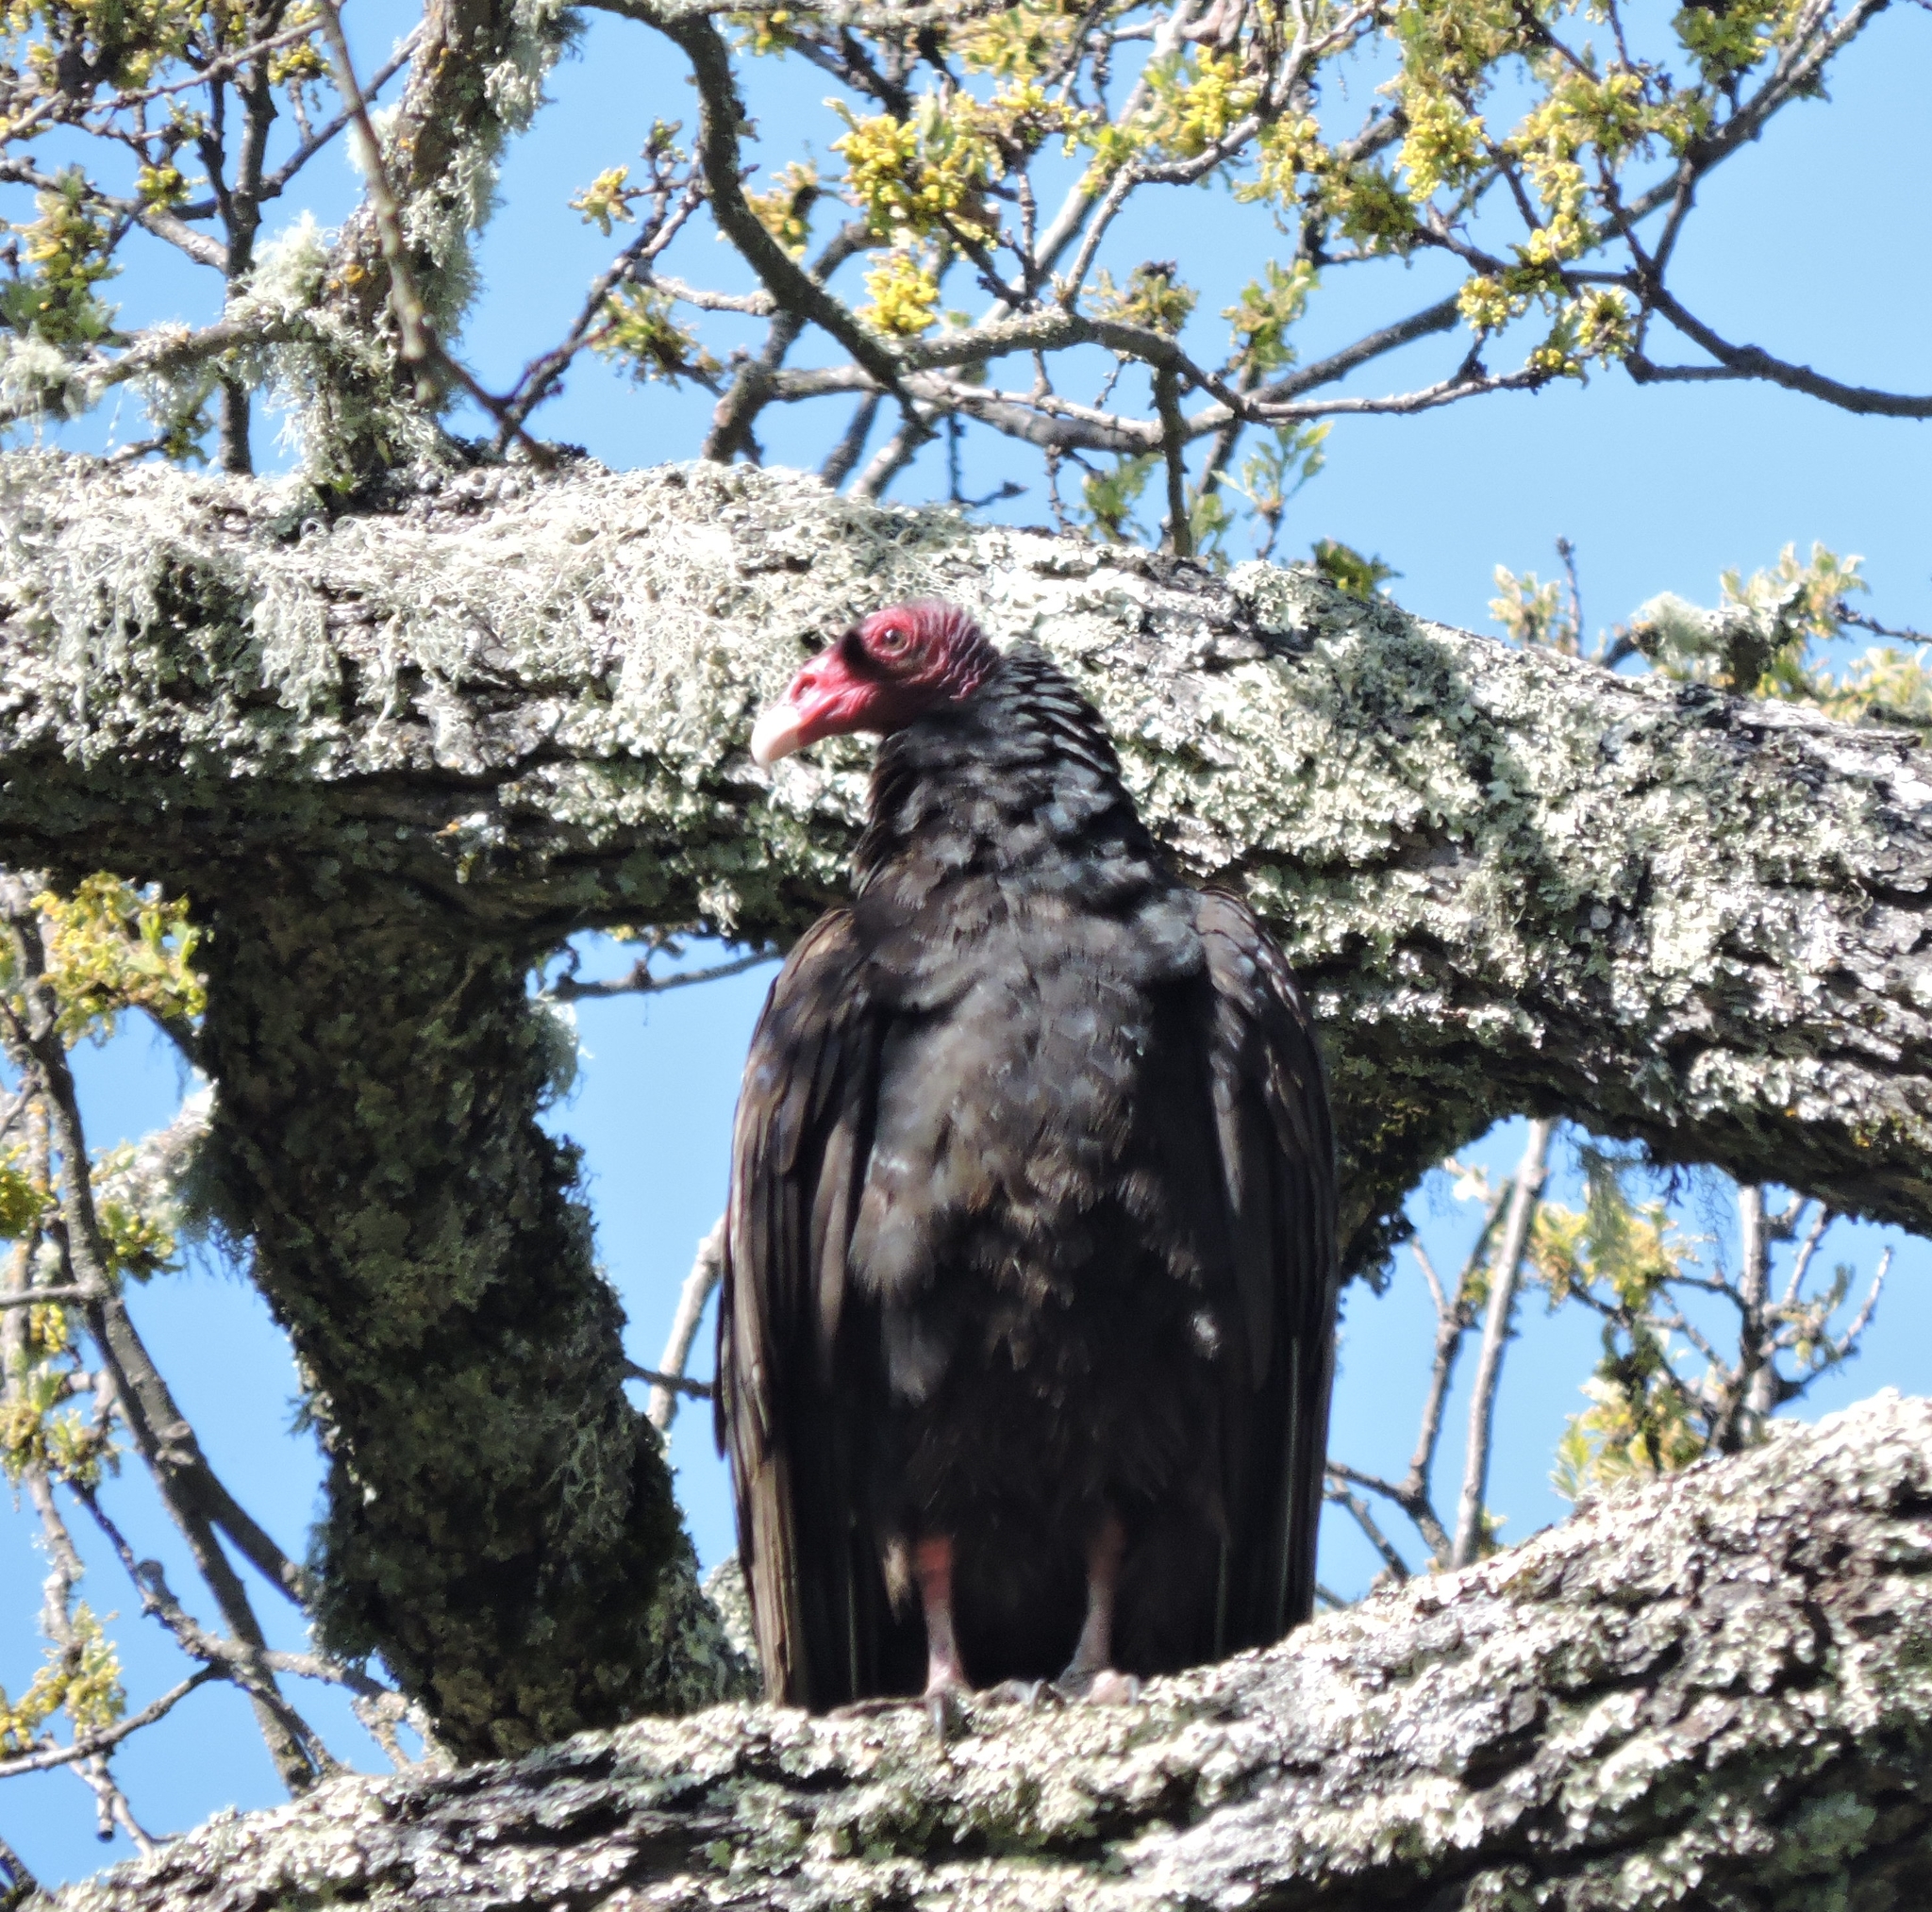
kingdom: Animalia
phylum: Chordata
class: Aves
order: Accipitriformes
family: Cathartidae
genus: Cathartes
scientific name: Cathartes aura
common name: Turkey vulture
